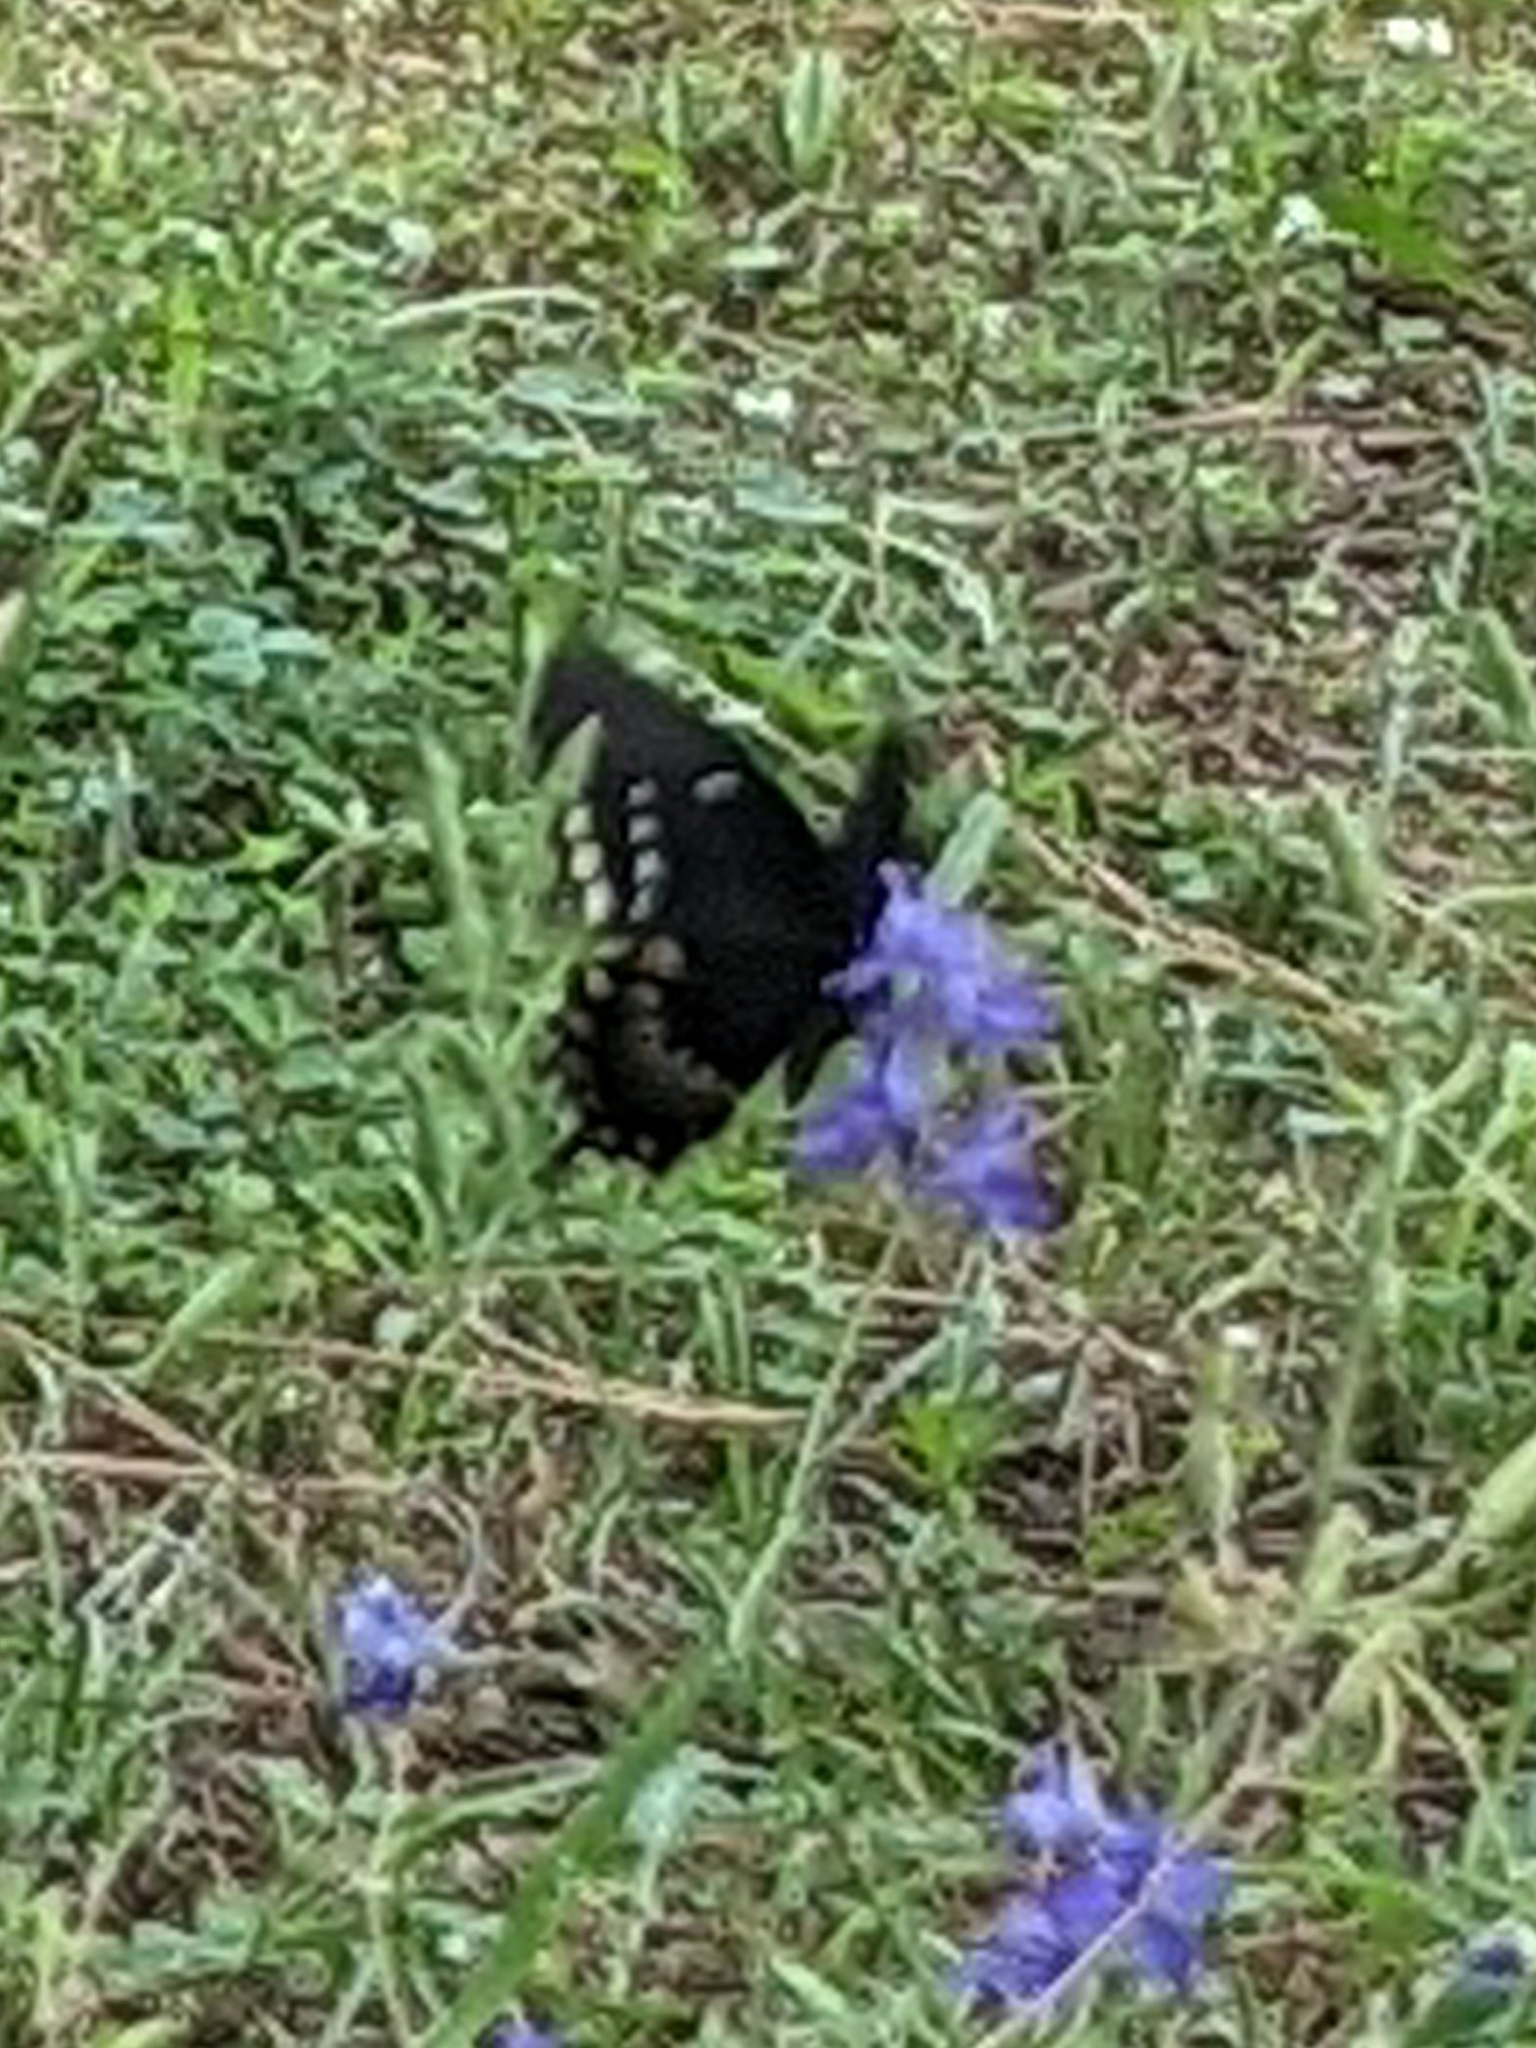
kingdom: Animalia
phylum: Arthropoda
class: Insecta
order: Lepidoptera
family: Papilionidae
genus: Papilio
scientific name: Papilio troilus
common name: Spicebush swallowtail
